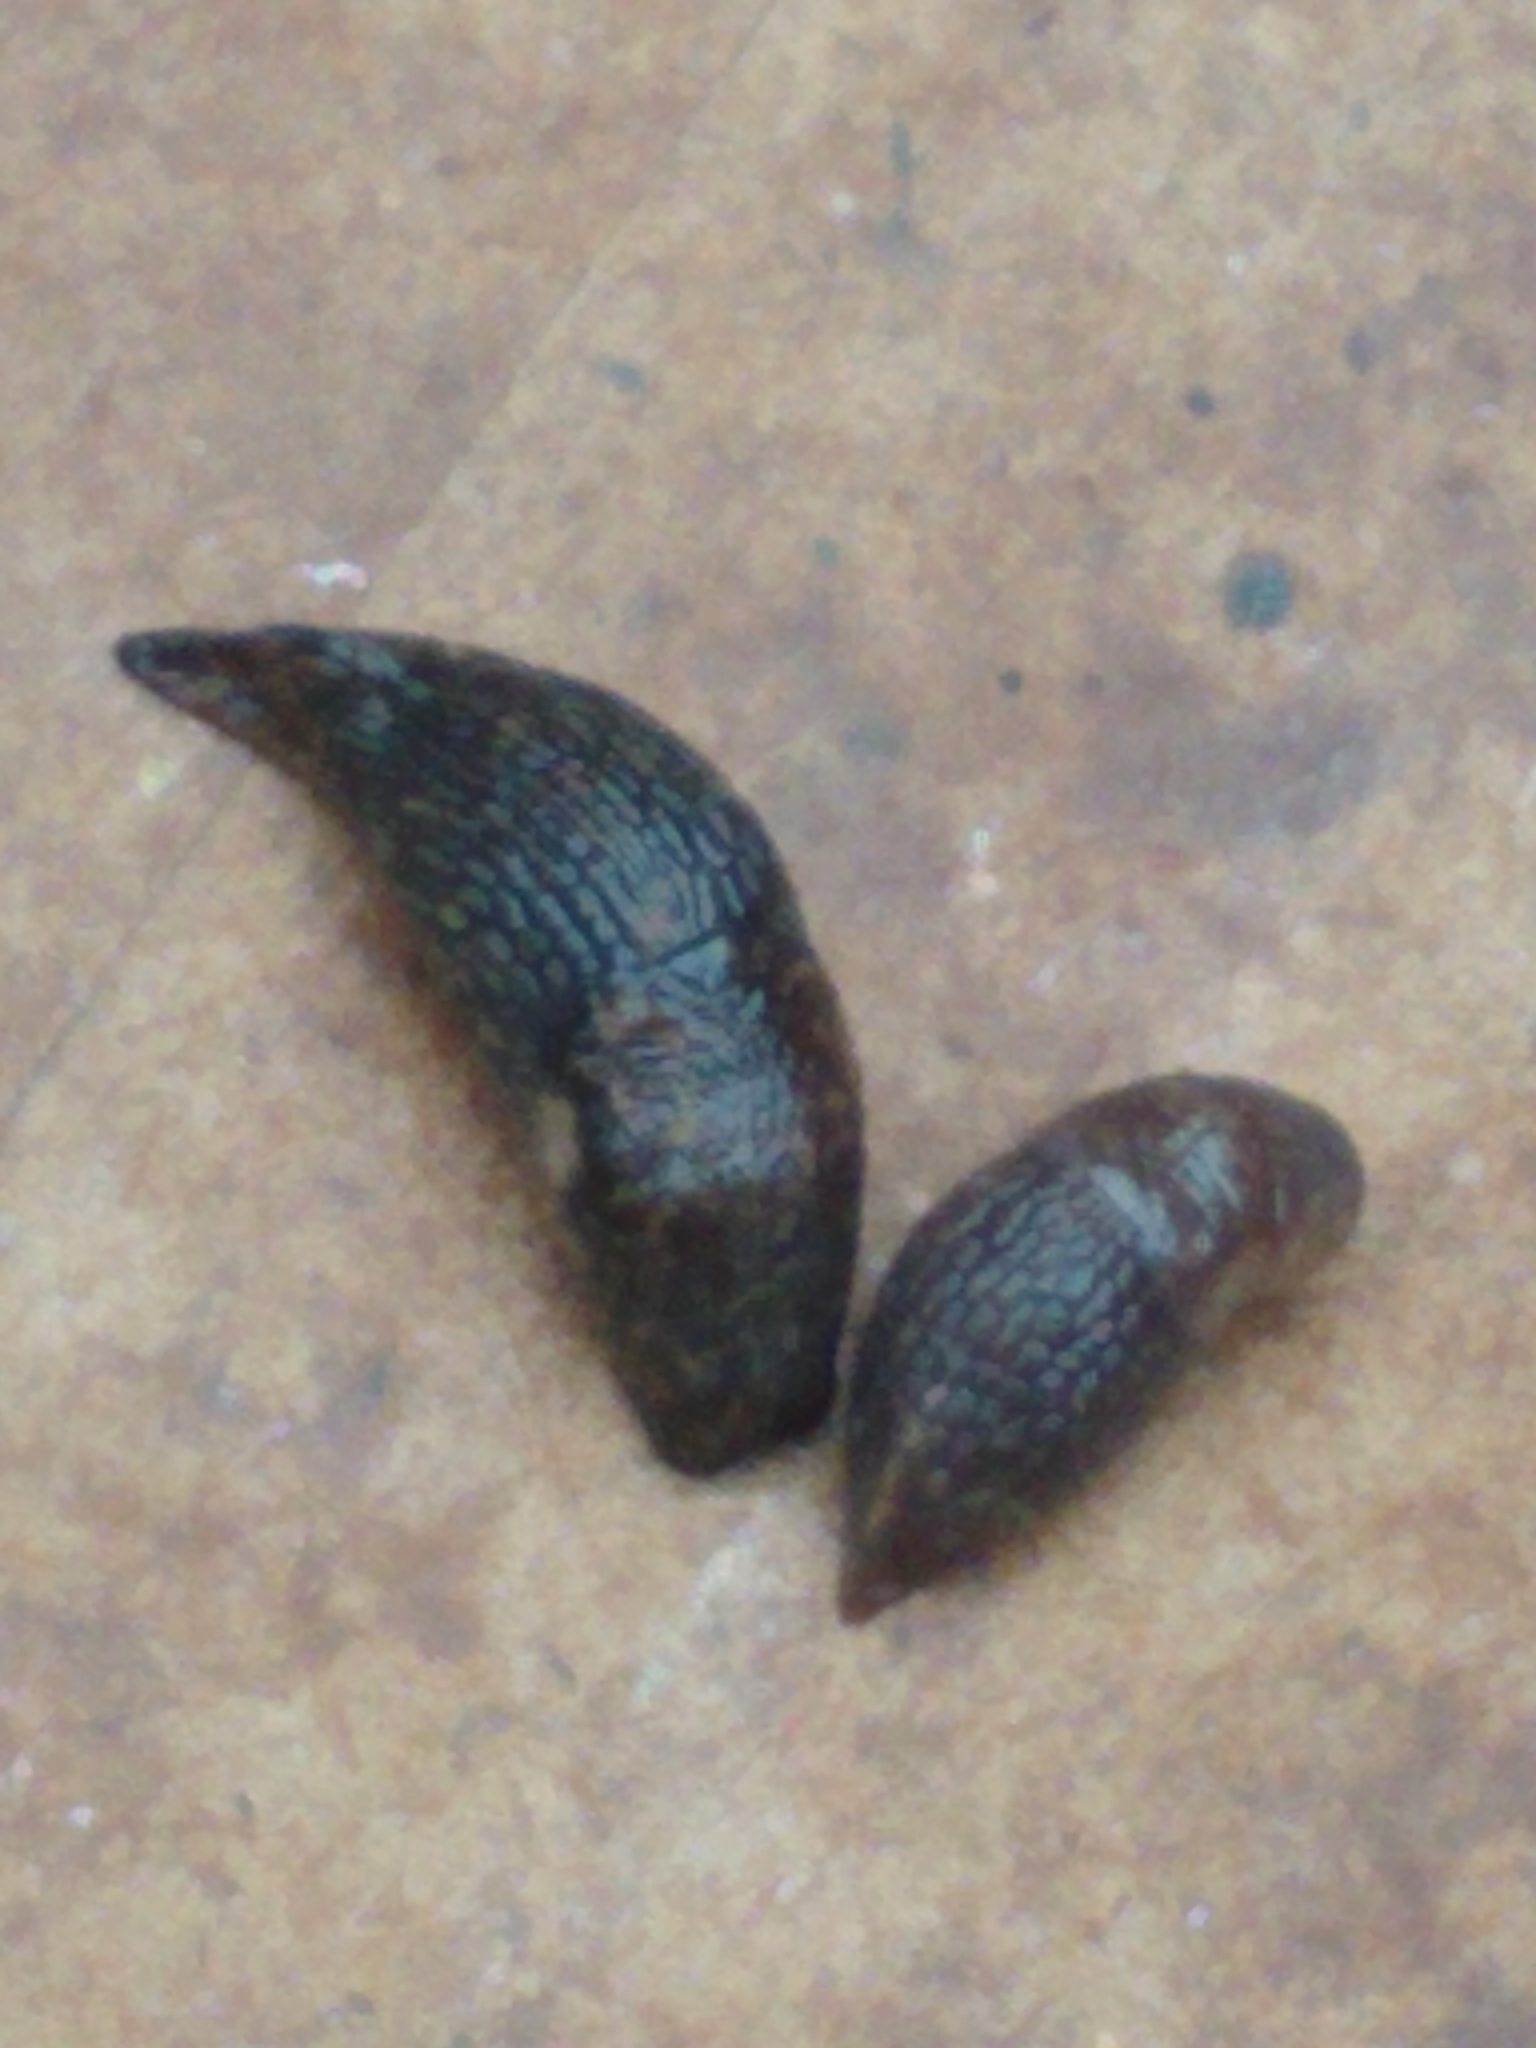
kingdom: Animalia
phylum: Mollusca
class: Gastropoda
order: Stylommatophora
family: Agriolimacidae
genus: Deroceras
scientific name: Deroceras reticulatum
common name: Gray field slug
